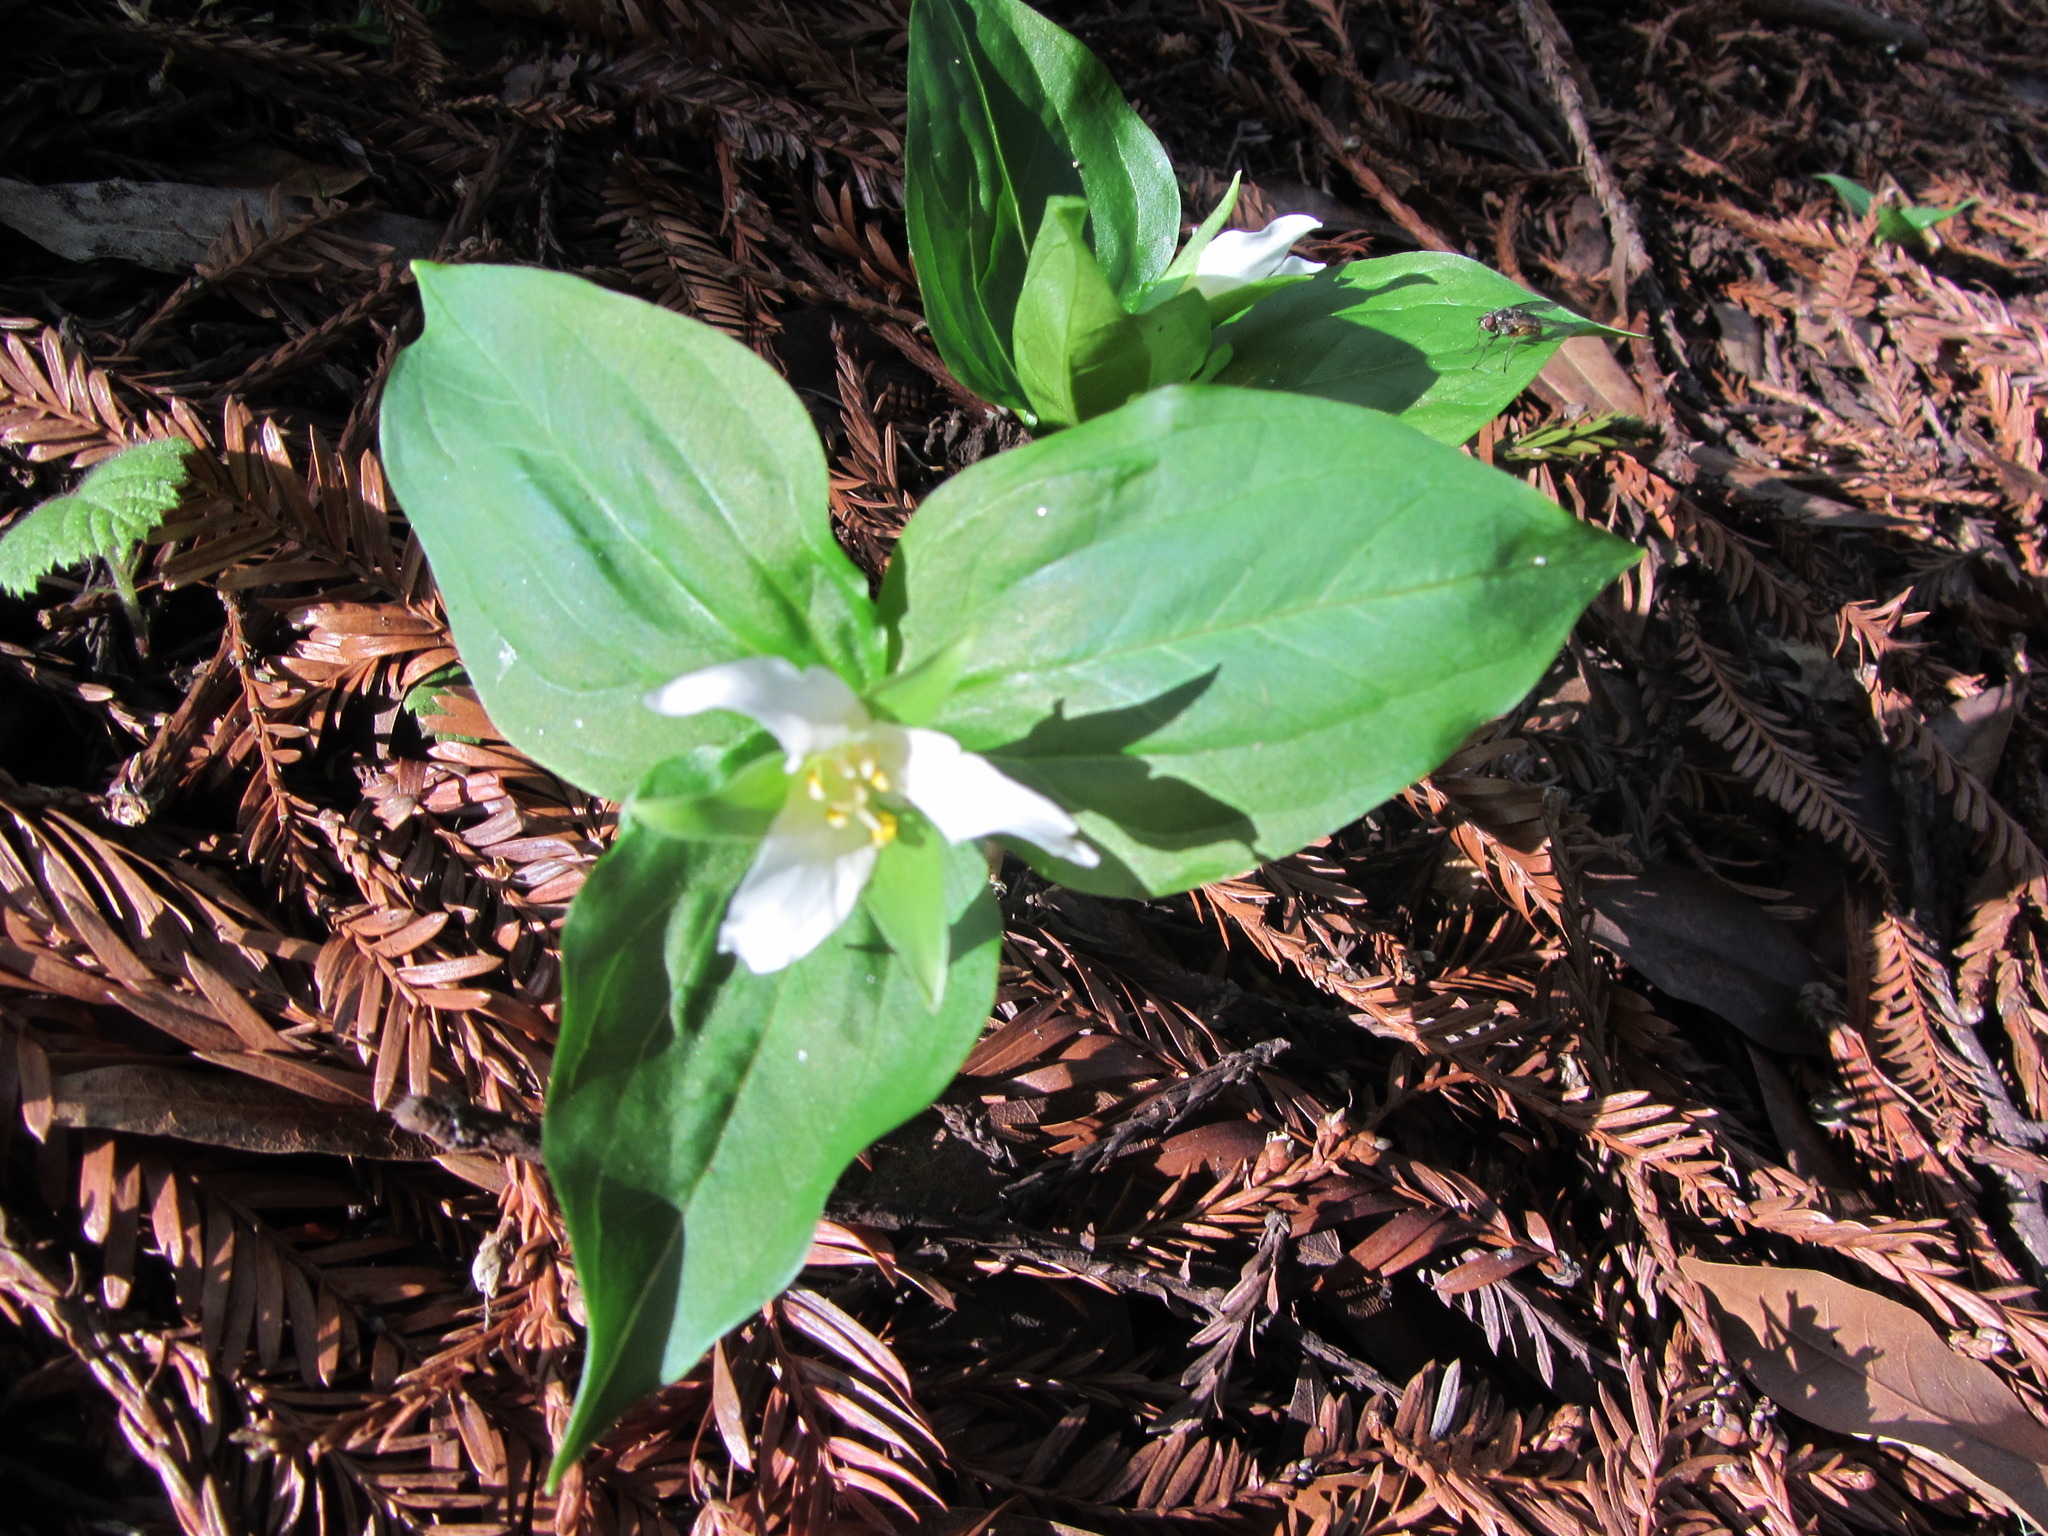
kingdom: Plantae
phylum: Tracheophyta
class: Liliopsida
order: Liliales
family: Melanthiaceae
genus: Trillium
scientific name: Trillium ovatum
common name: Pacific trillium
